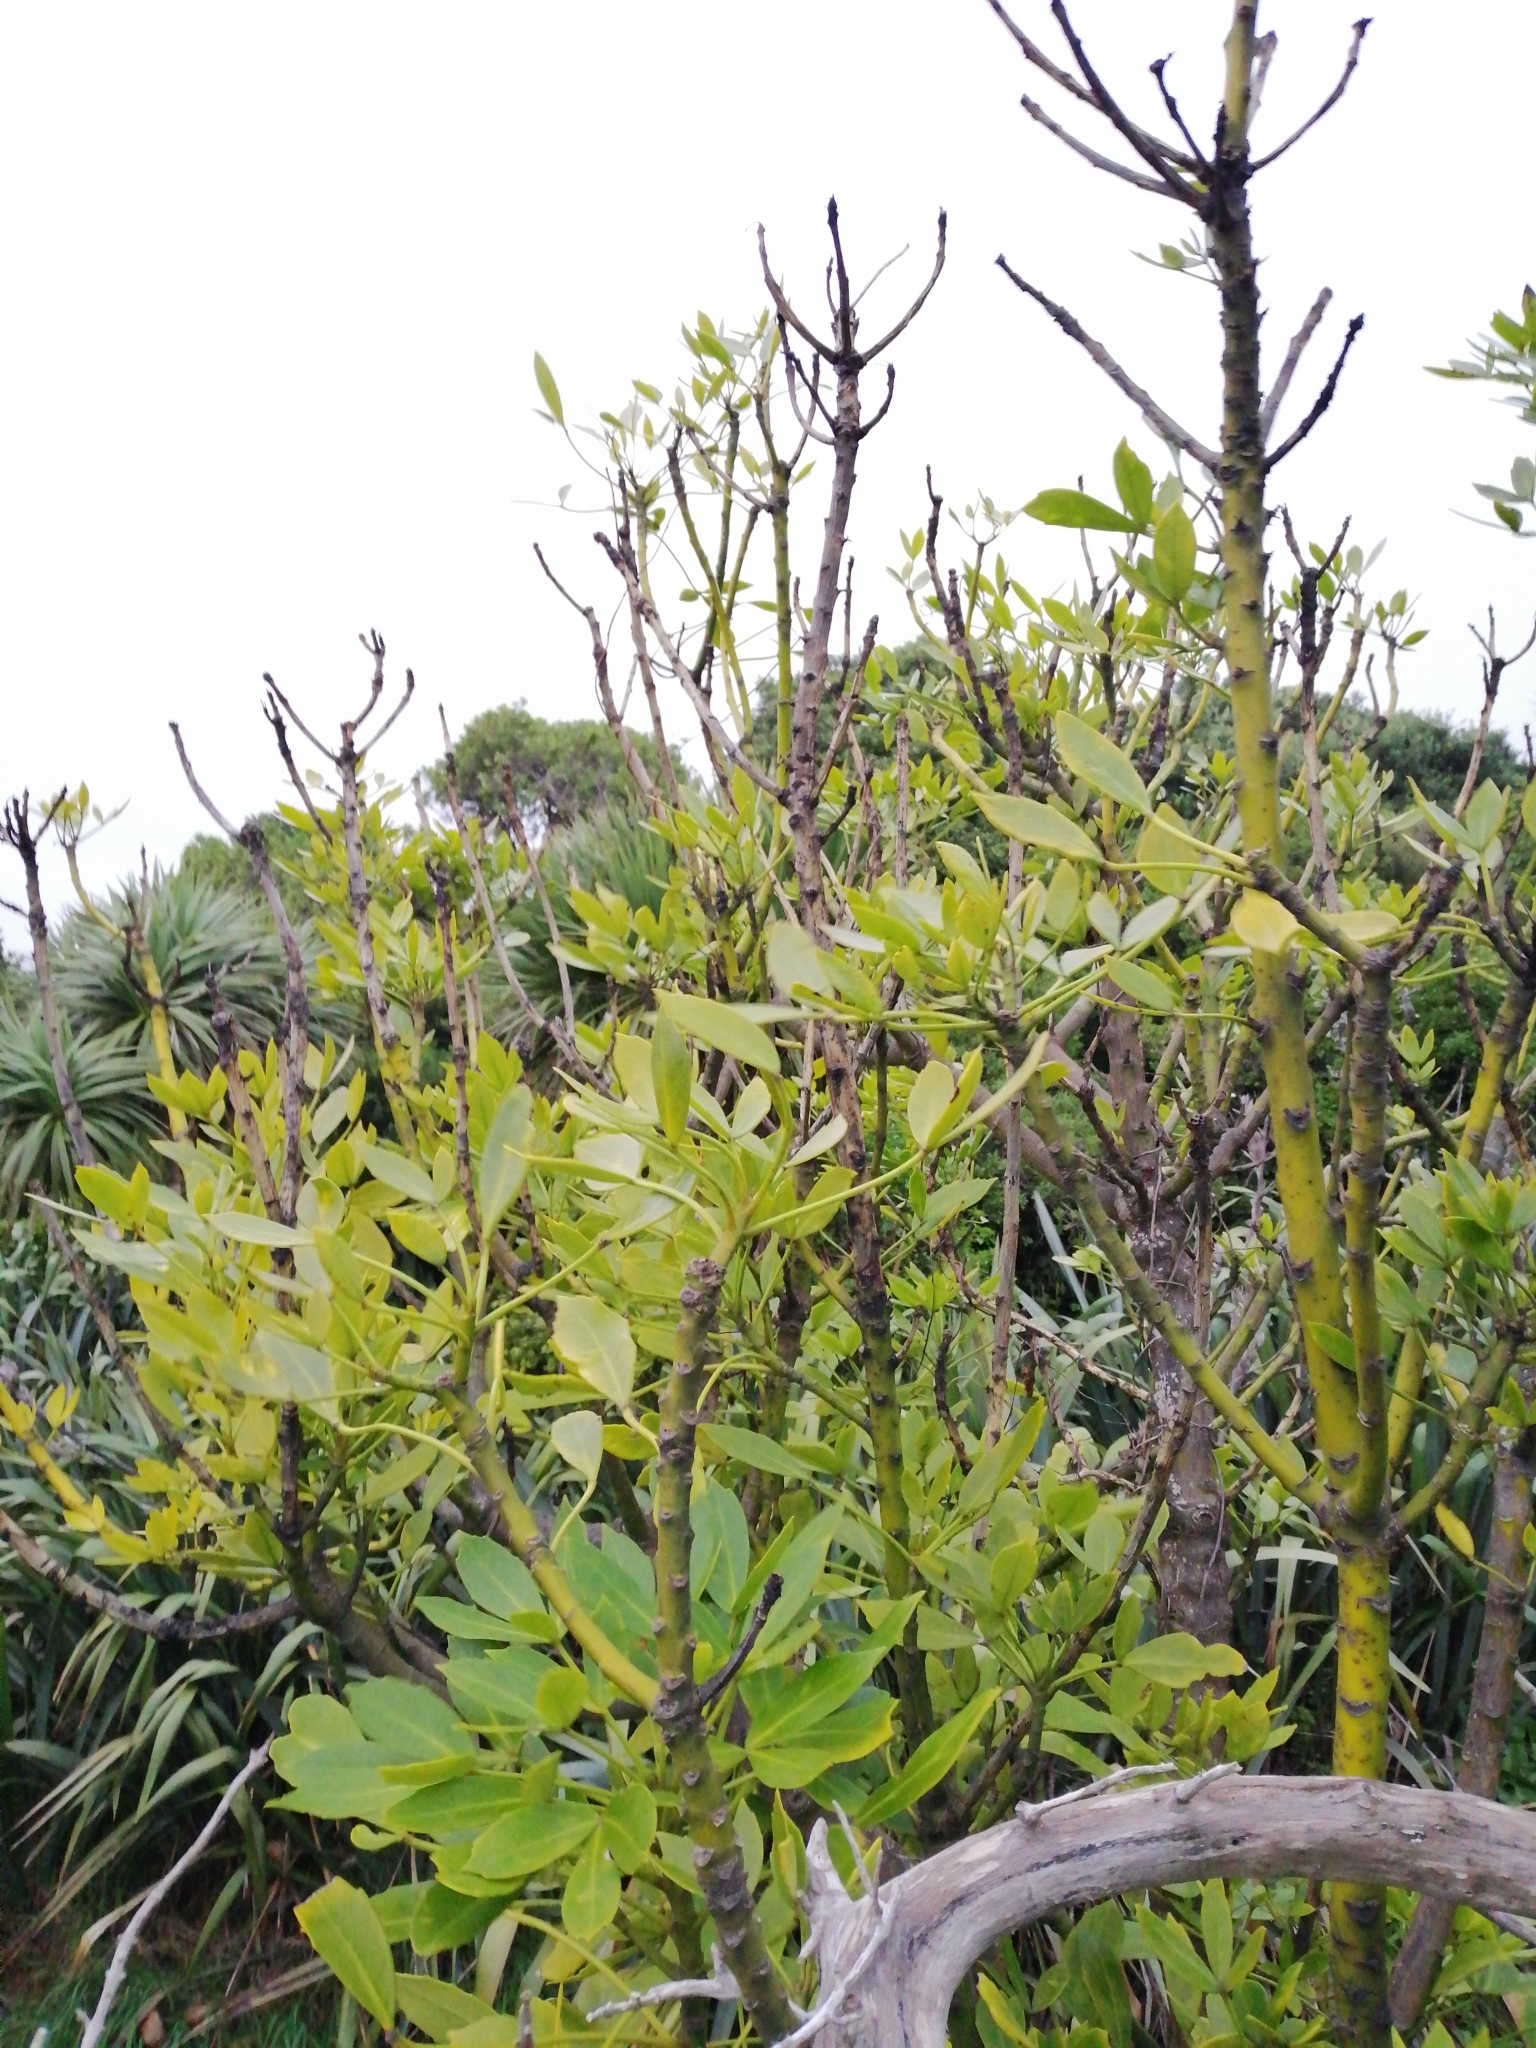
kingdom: Plantae
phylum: Tracheophyta
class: Magnoliopsida
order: Apiales
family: Araliaceae
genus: Pseudopanax
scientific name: Pseudopanax lessonii
